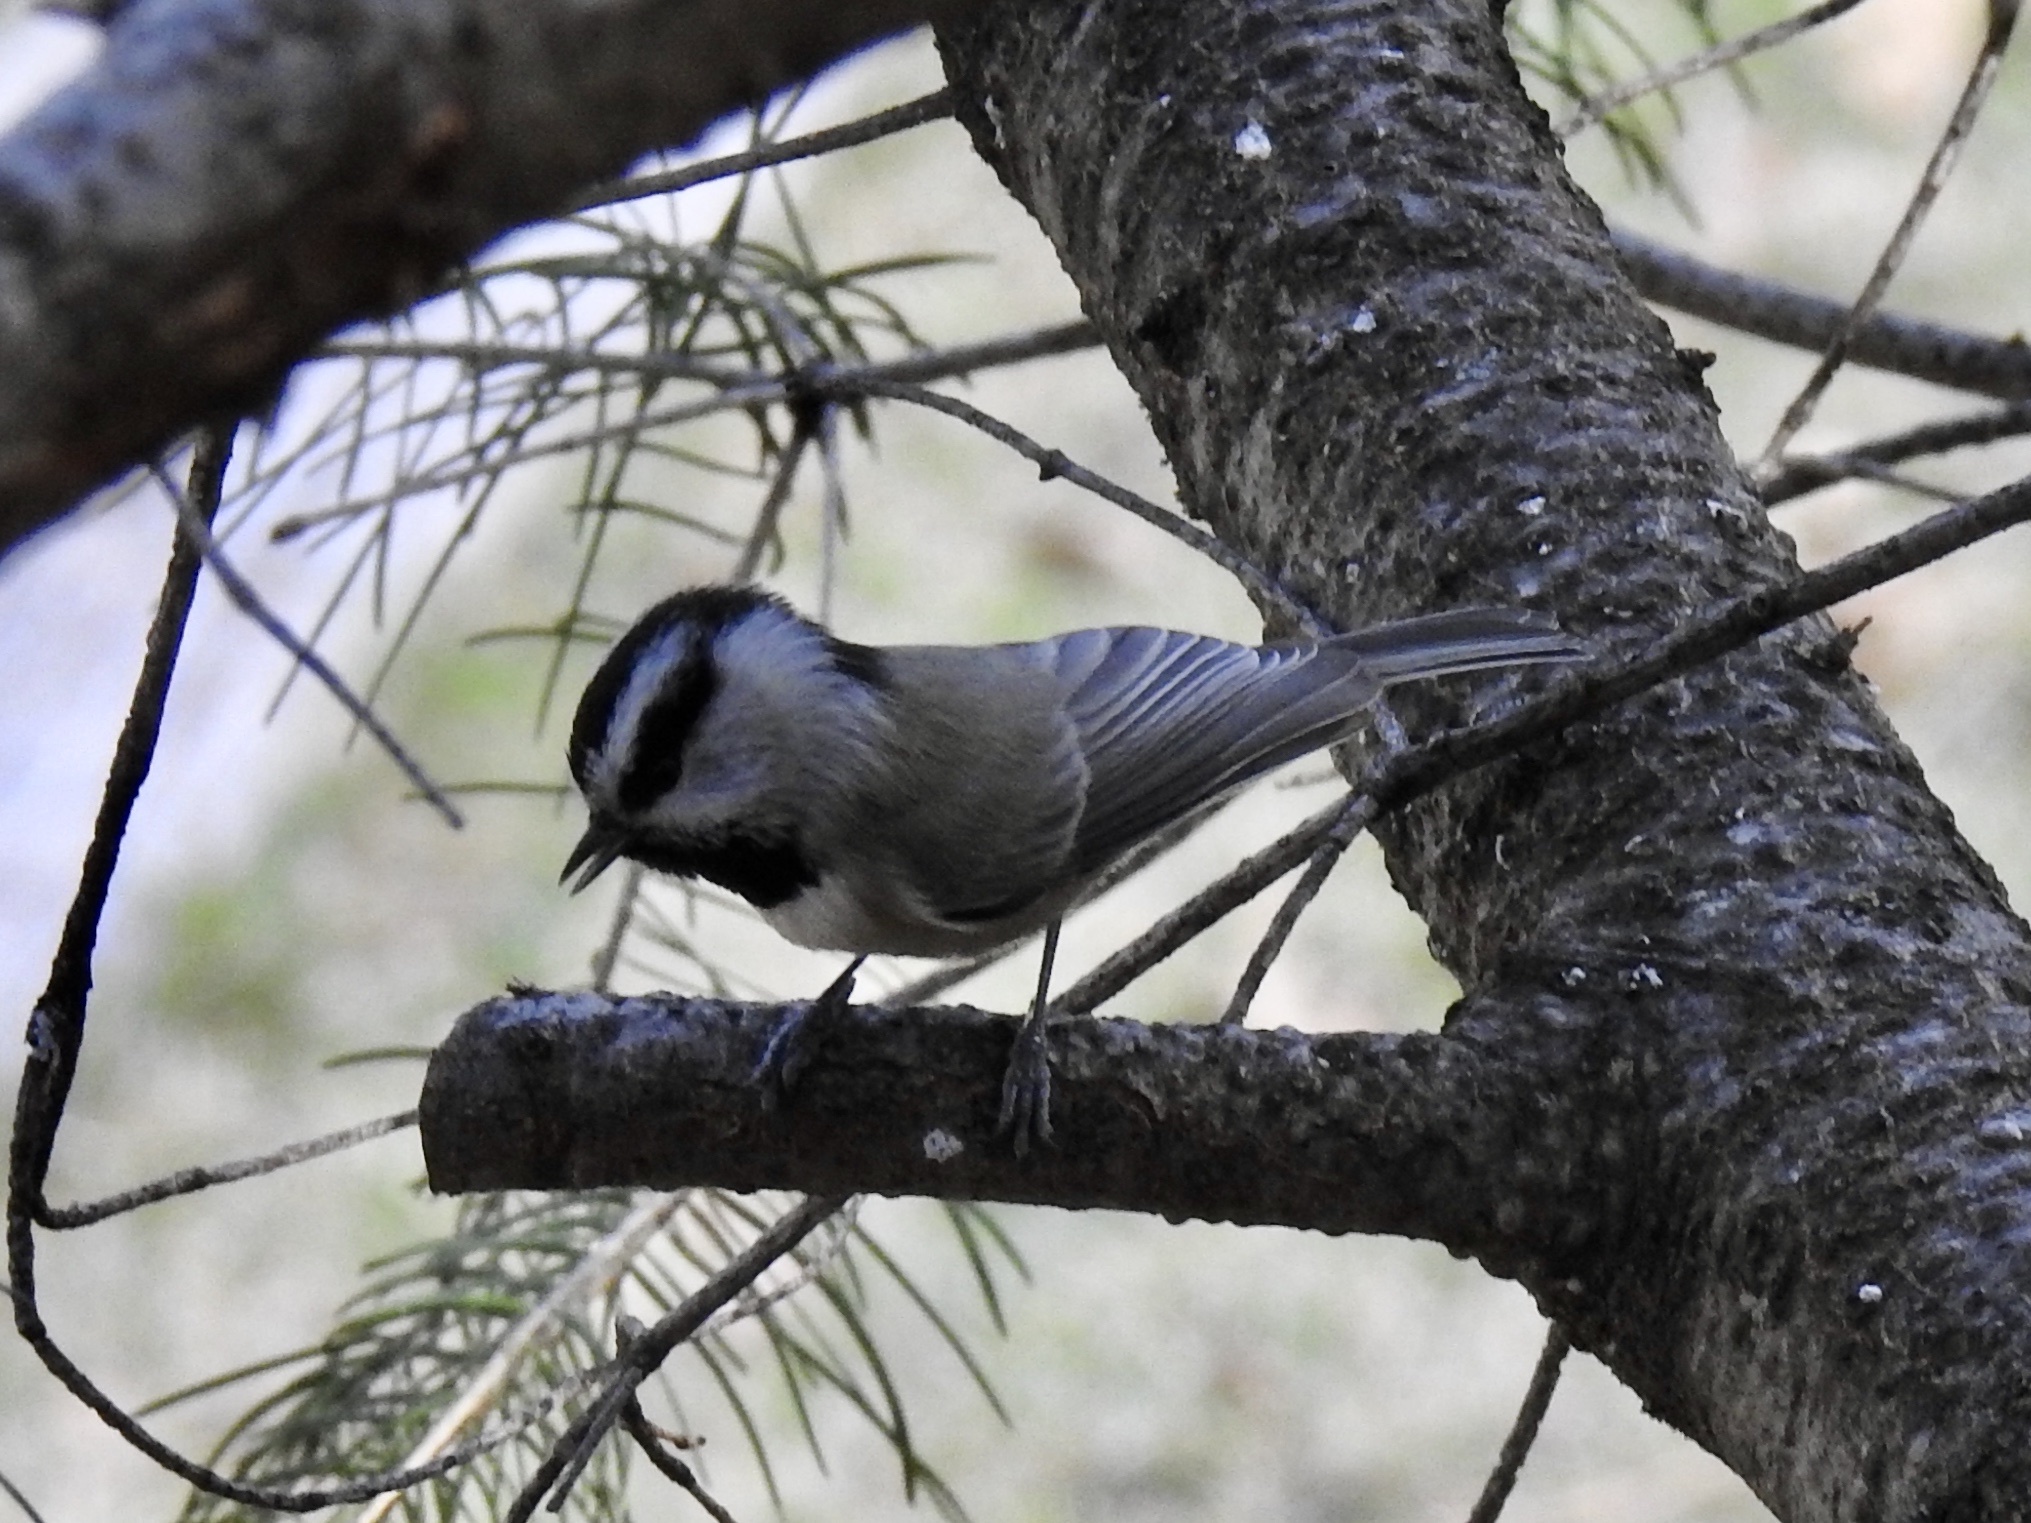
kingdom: Animalia
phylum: Chordata
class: Aves
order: Passeriformes
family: Paridae
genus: Poecile
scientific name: Poecile gambeli
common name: Mountain chickadee
